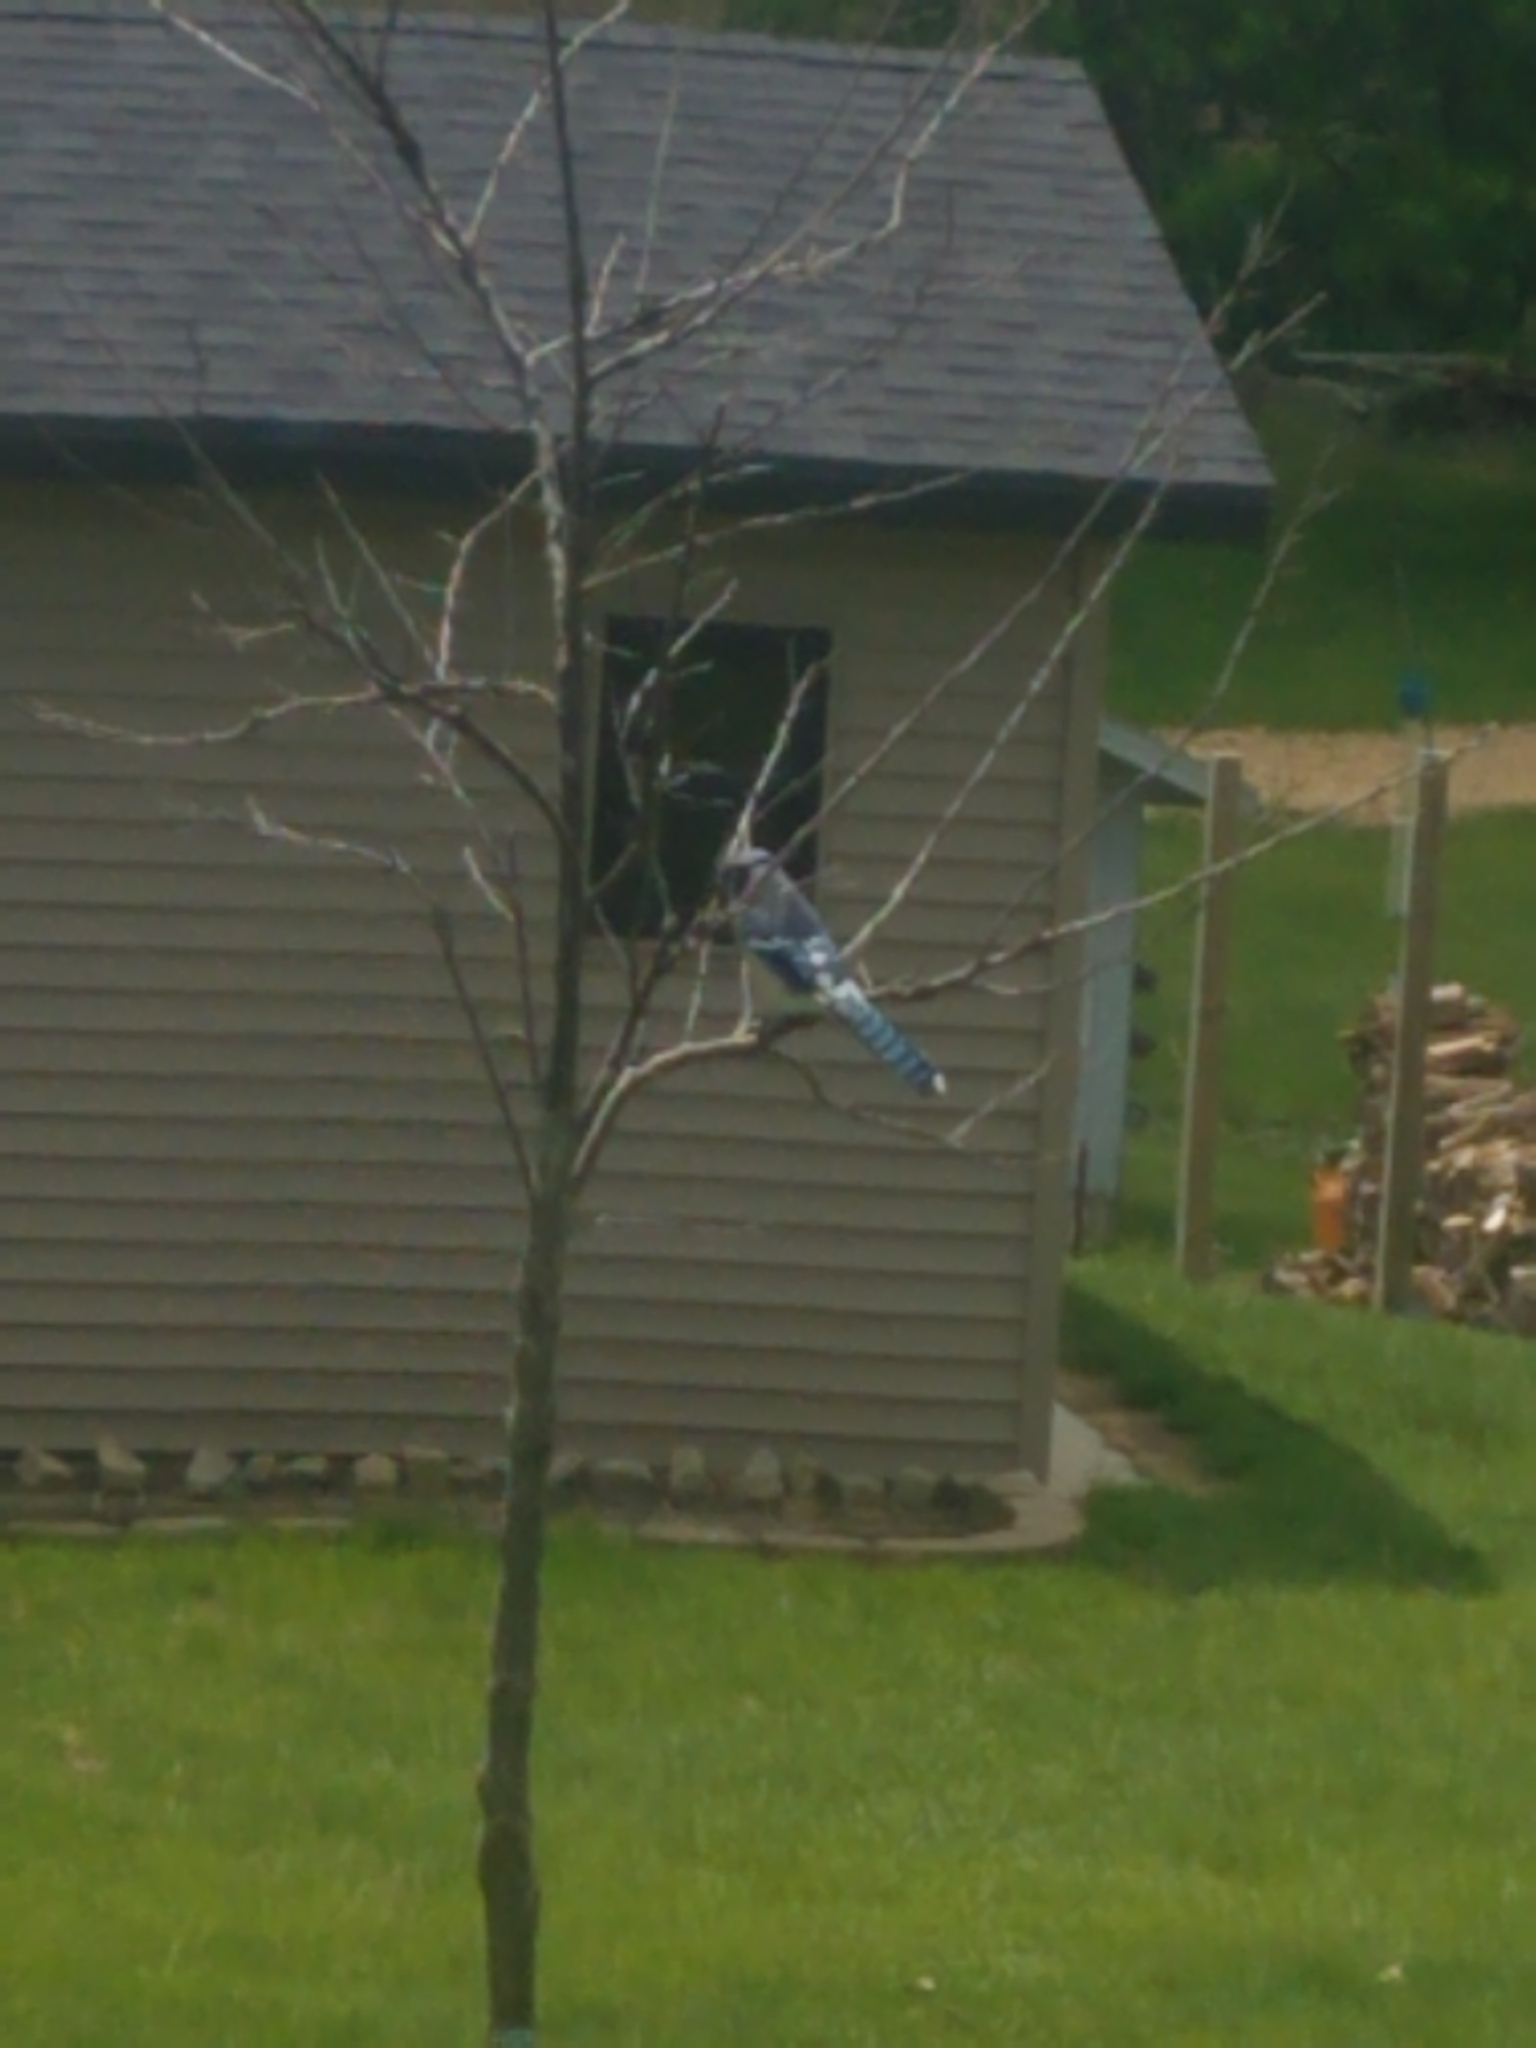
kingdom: Animalia
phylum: Chordata
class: Aves
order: Passeriformes
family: Corvidae
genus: Cyanocitta
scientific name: Cyanocitta cristata
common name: Blue jay
